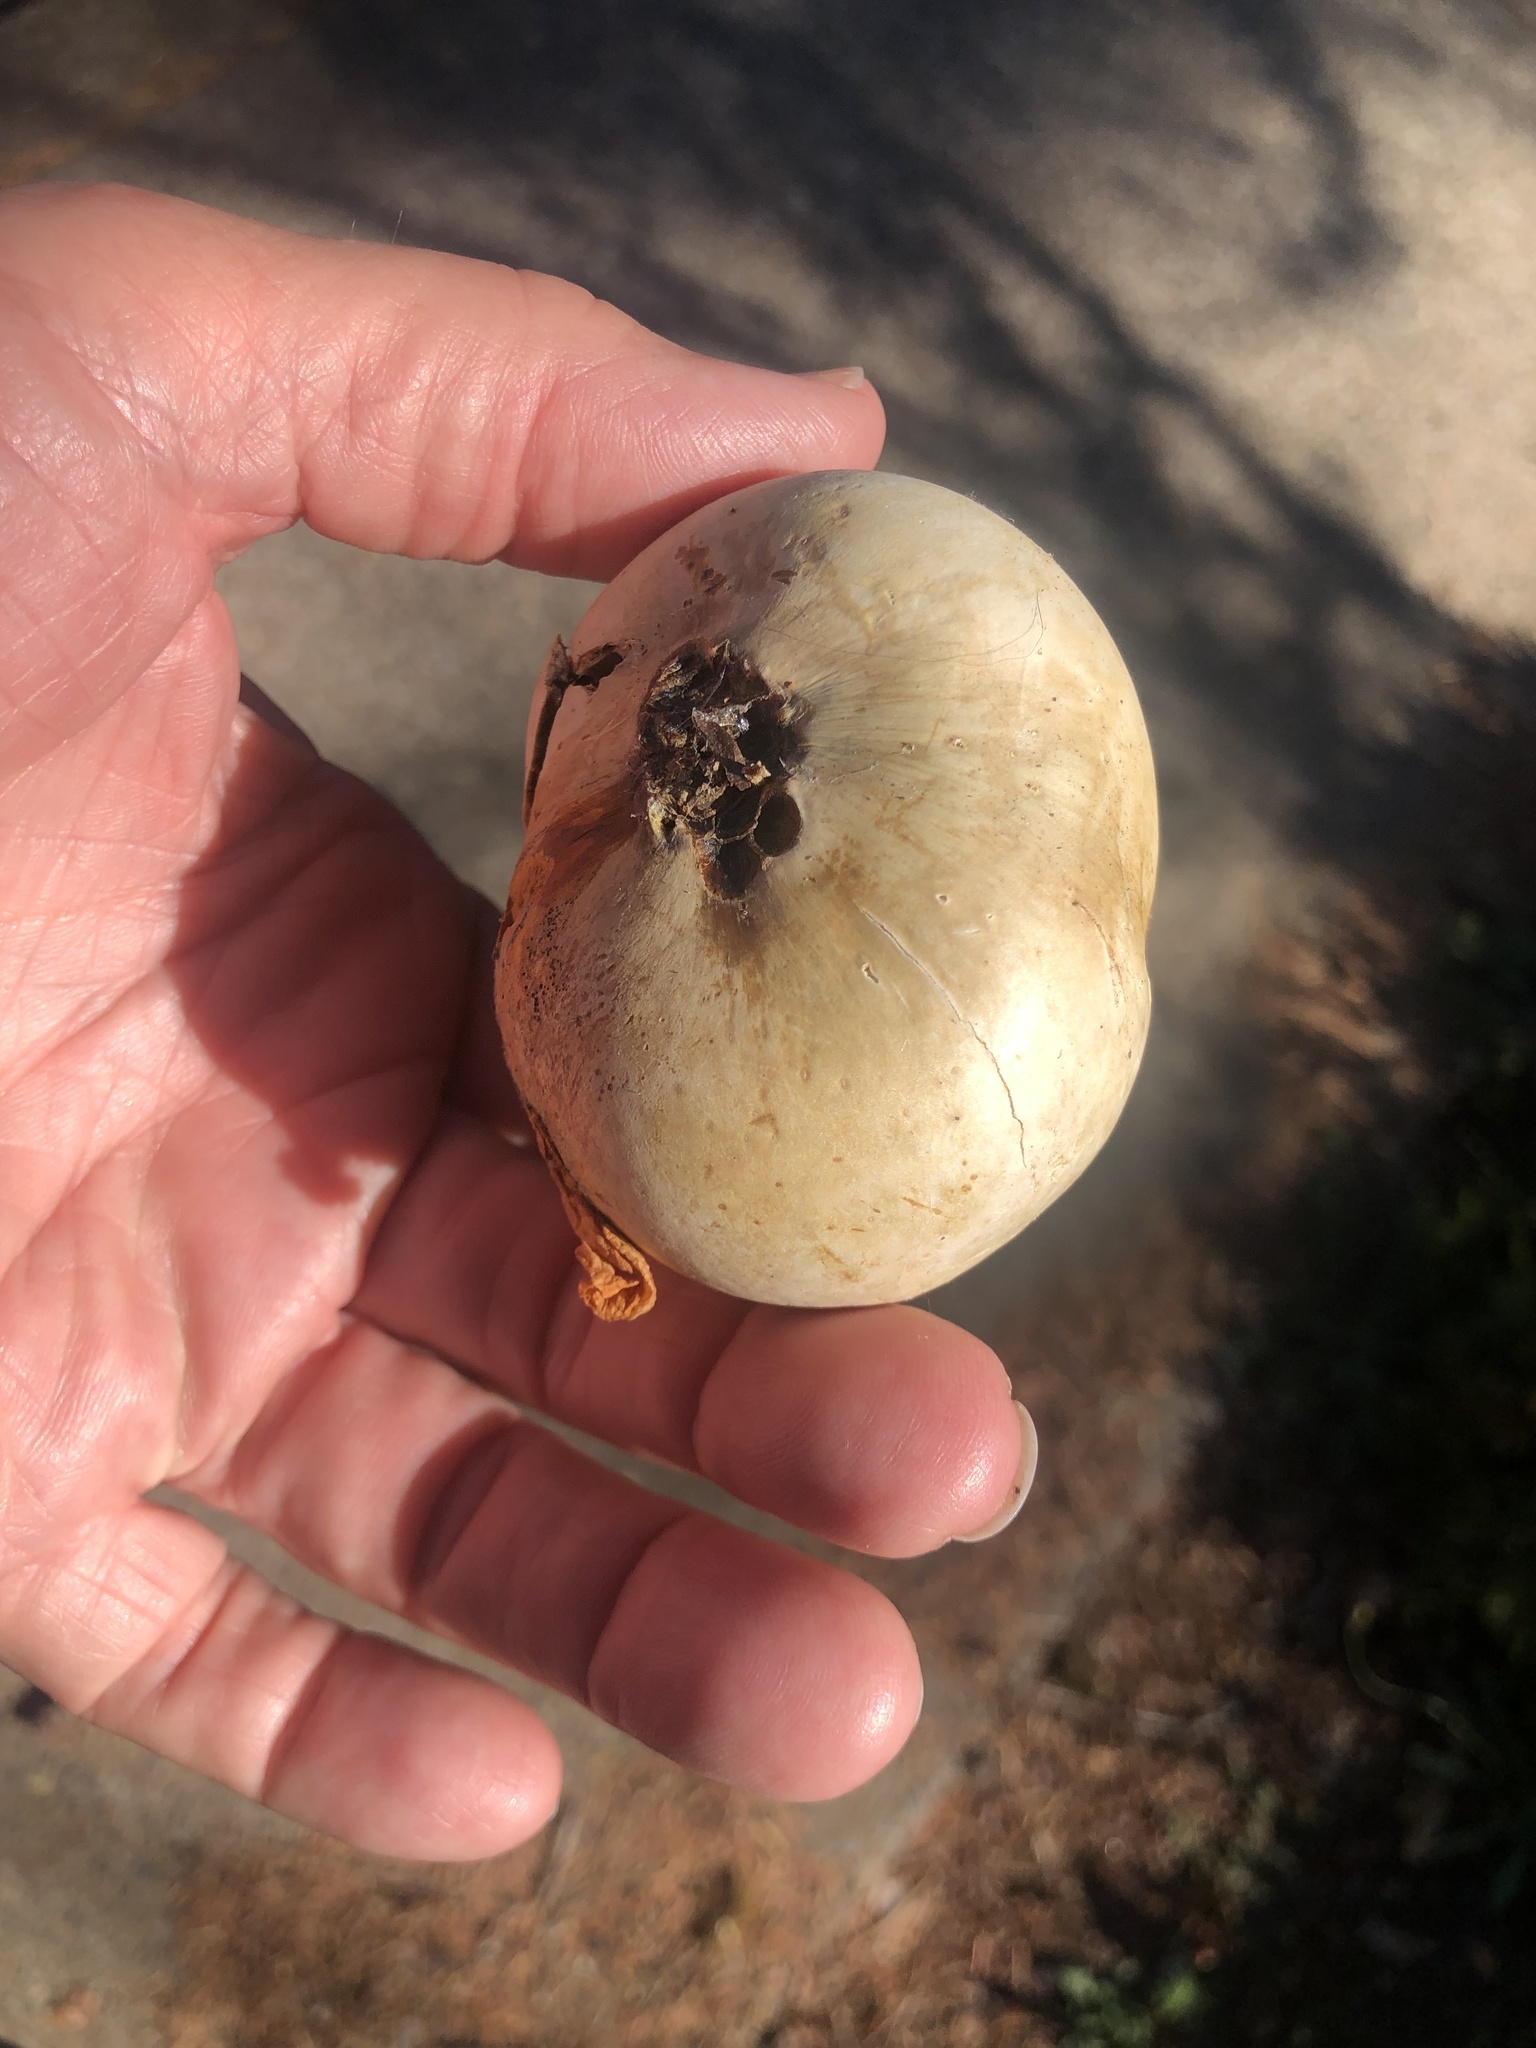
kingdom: Animalia
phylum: Arthropoda
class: Insecta
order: Hymenoptera
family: Cynipidae
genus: Andricus
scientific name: Andricus quercuscalifornicus
